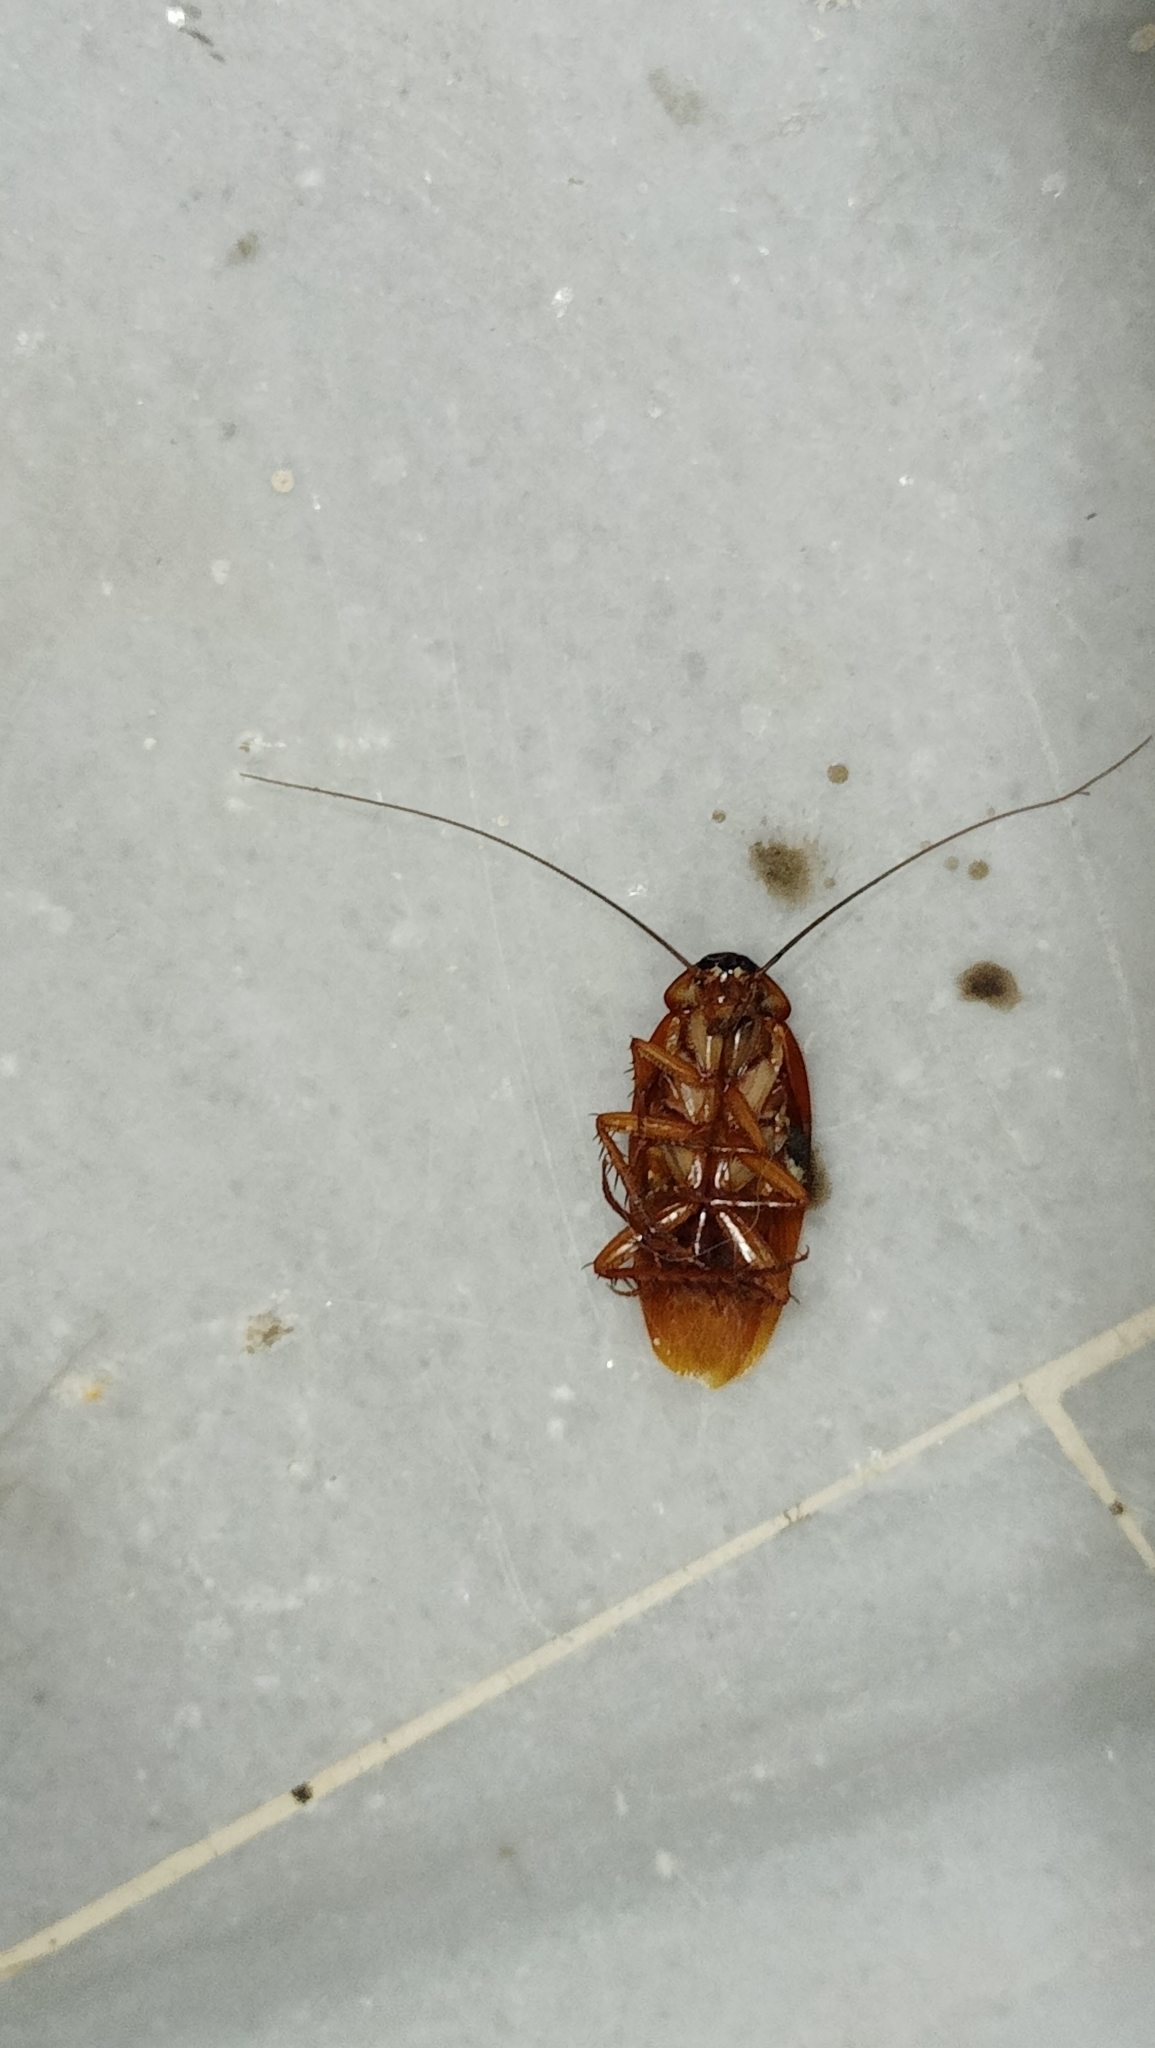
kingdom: Animalia
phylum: Arthropoda
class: Insecta
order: Blattodea
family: Blattidae
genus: Periplaneta
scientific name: Periplaneta americana
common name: American cockroach
